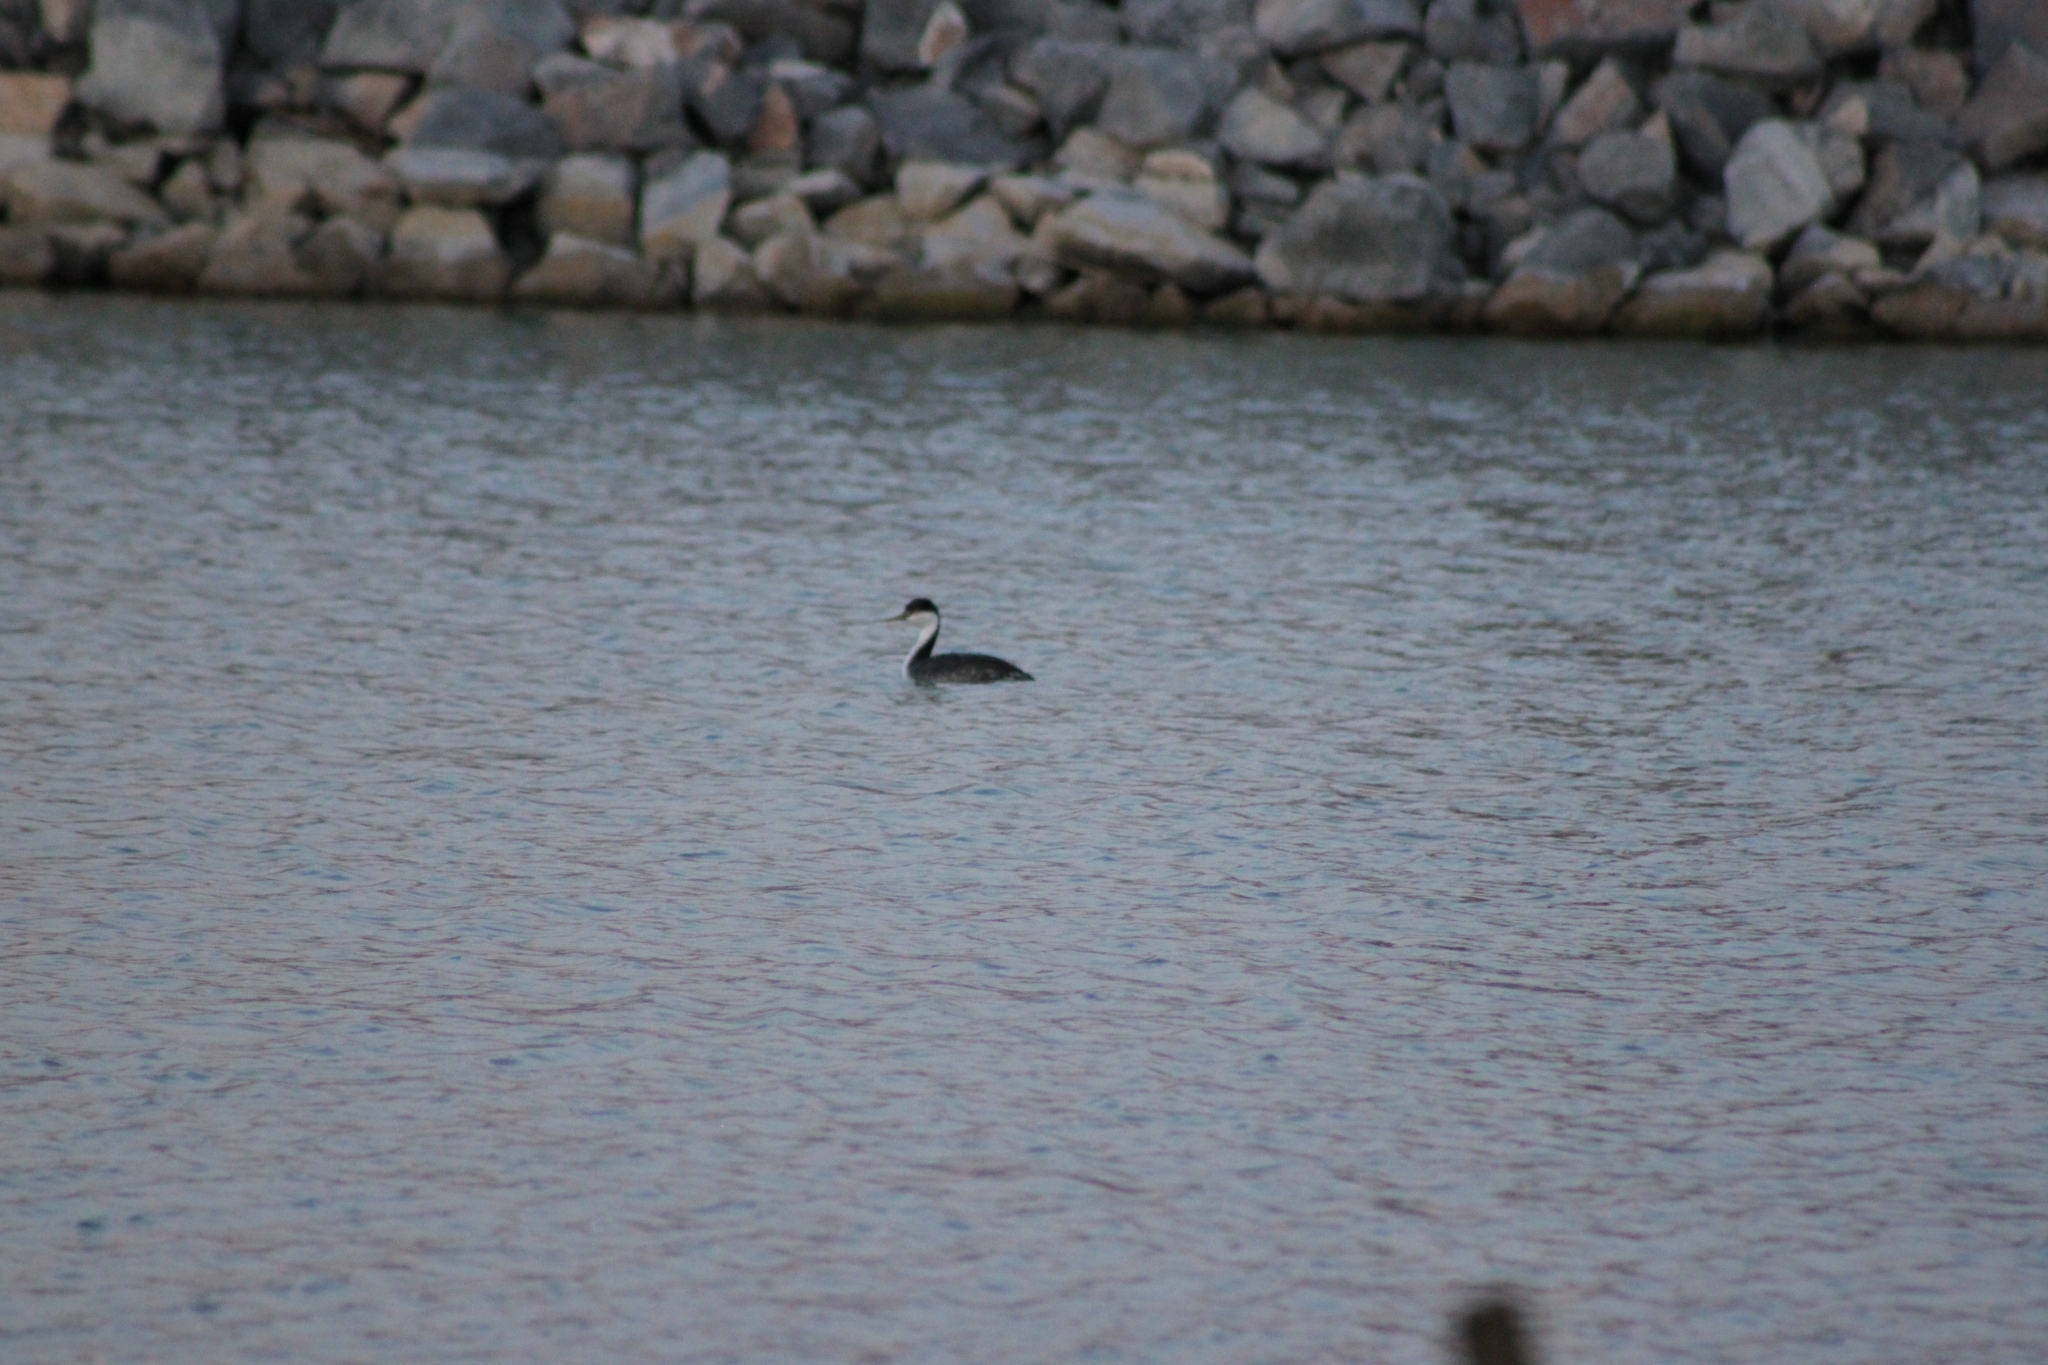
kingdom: Animalia
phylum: Chordata
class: Aves
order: Podicipediformes
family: Podicipedidae
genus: Aechmophorus
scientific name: Aechmophorus occidentalis
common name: Western grebe
